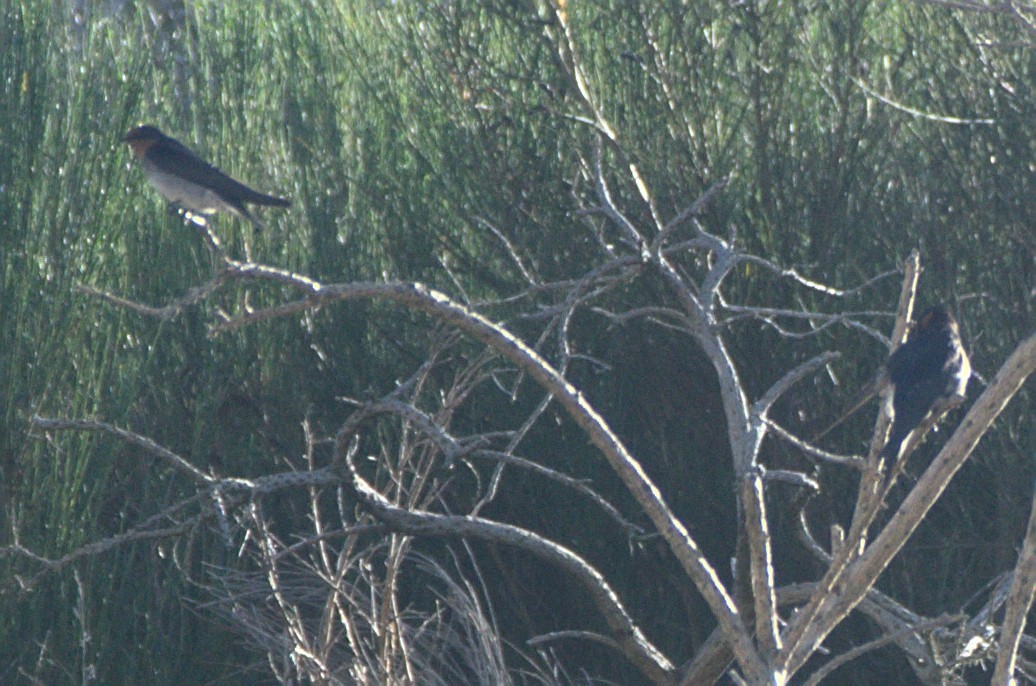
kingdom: Animalia
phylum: Chordata
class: Aves
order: Passeriformes
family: Hirundinidae
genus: Hirundo
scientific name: Hirundo neoxena
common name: Welcome swallow
